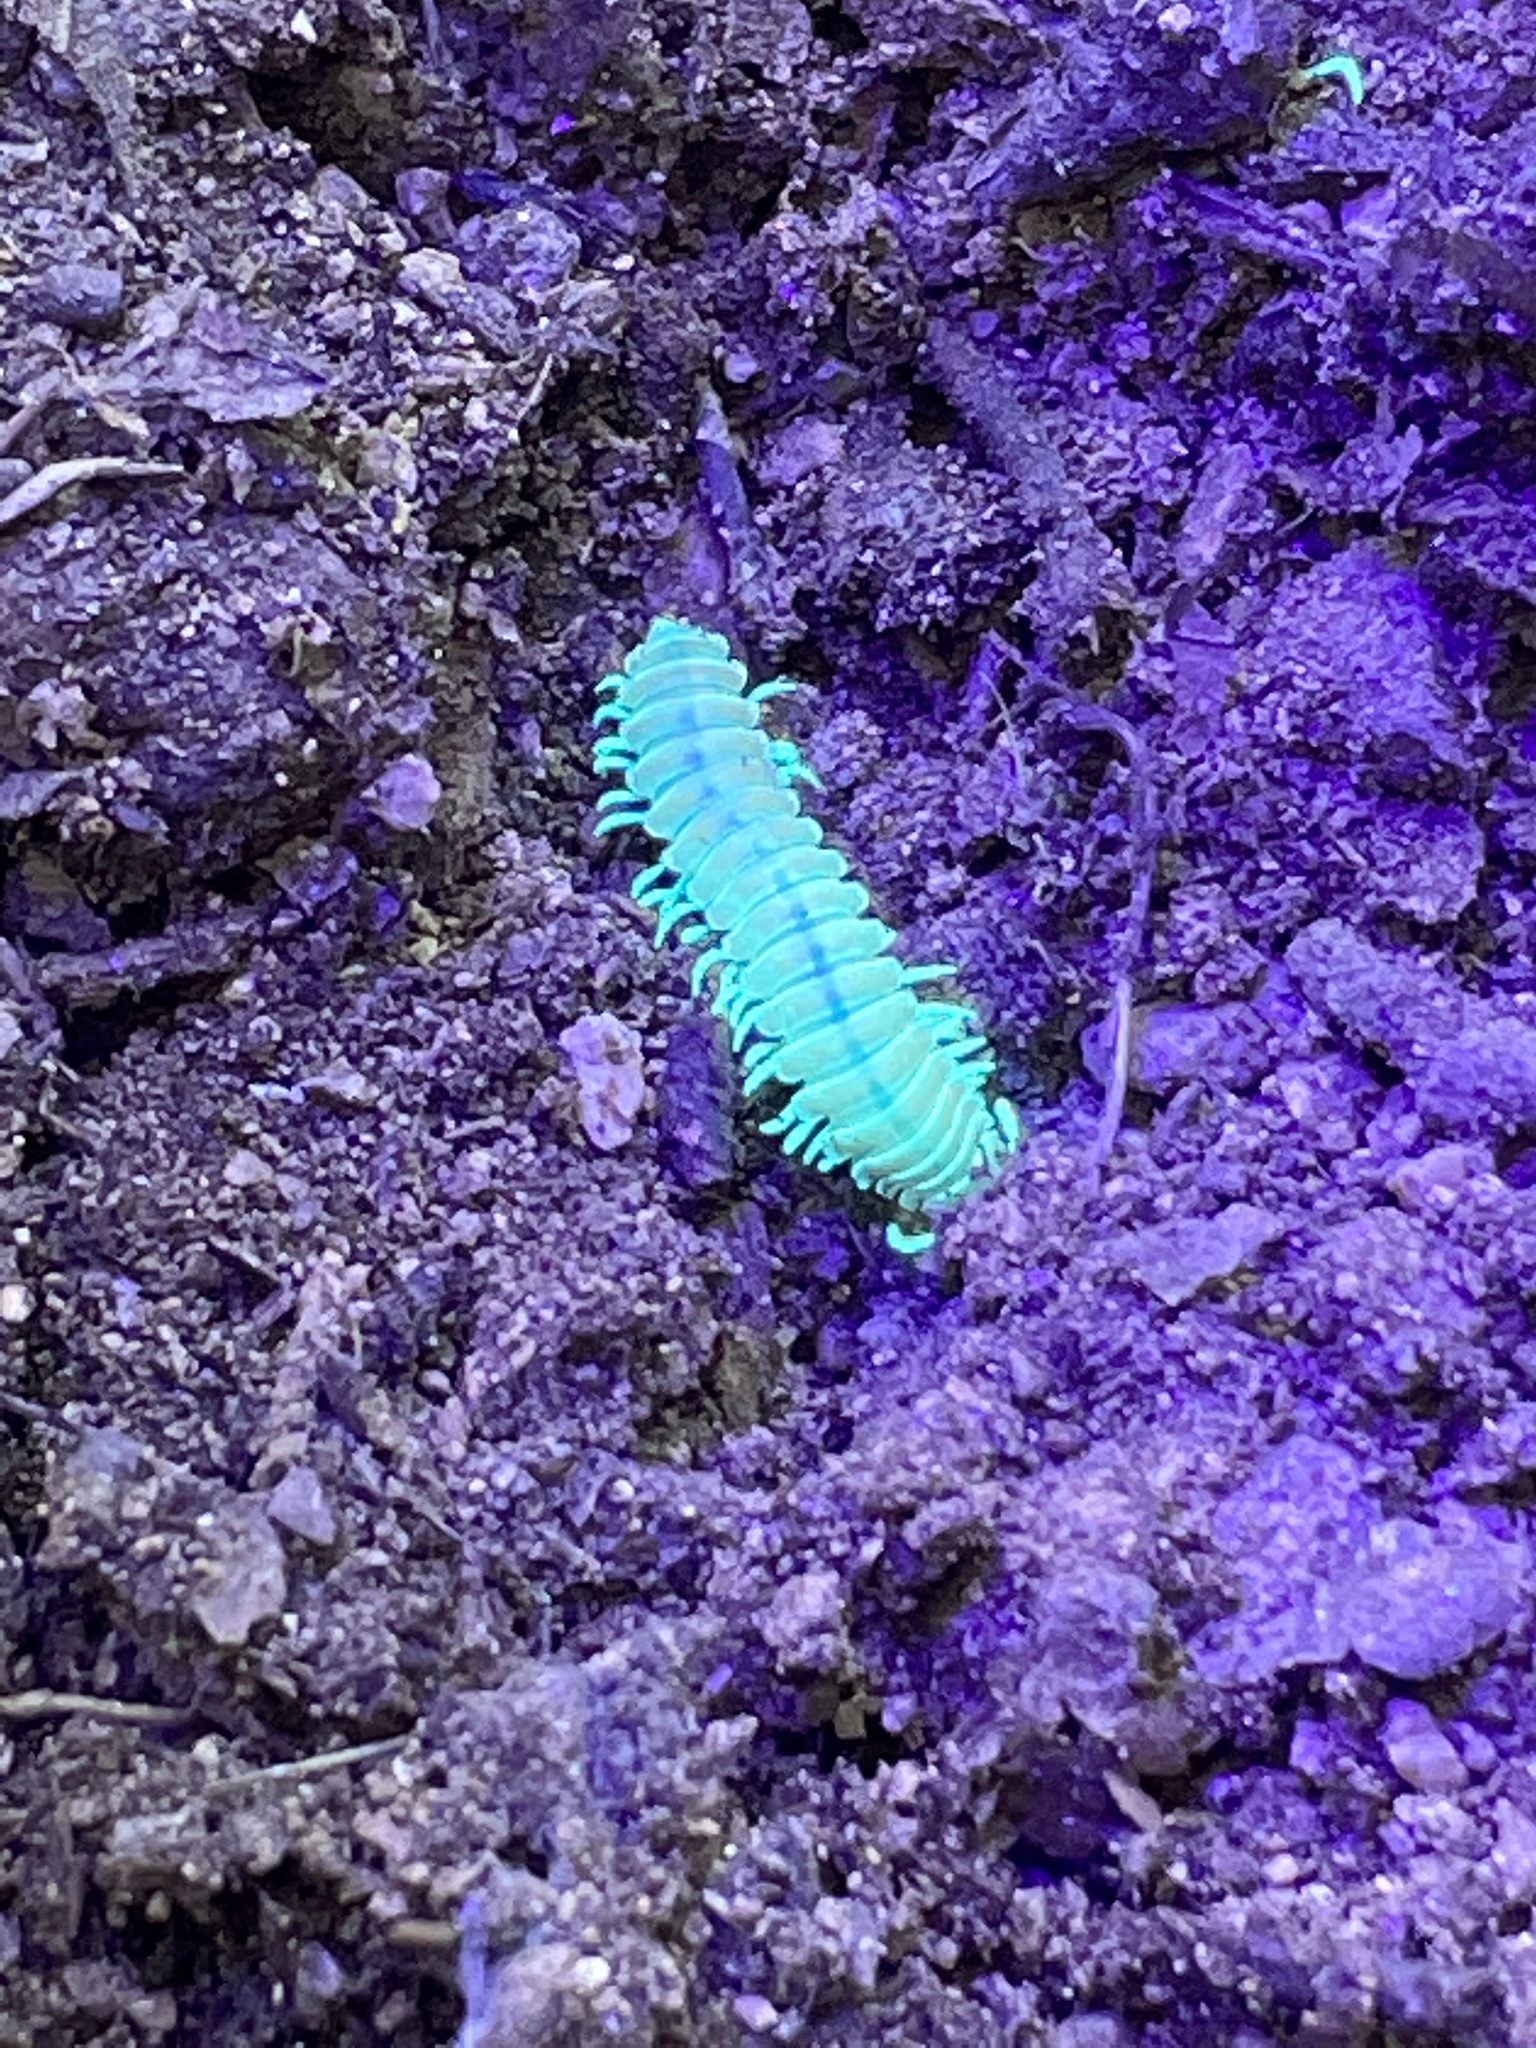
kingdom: Animalia
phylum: Arthropoda
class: Diplopoda
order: Polydesmida
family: Xystodesmidae
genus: Motyxia
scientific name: Motyxia monica
